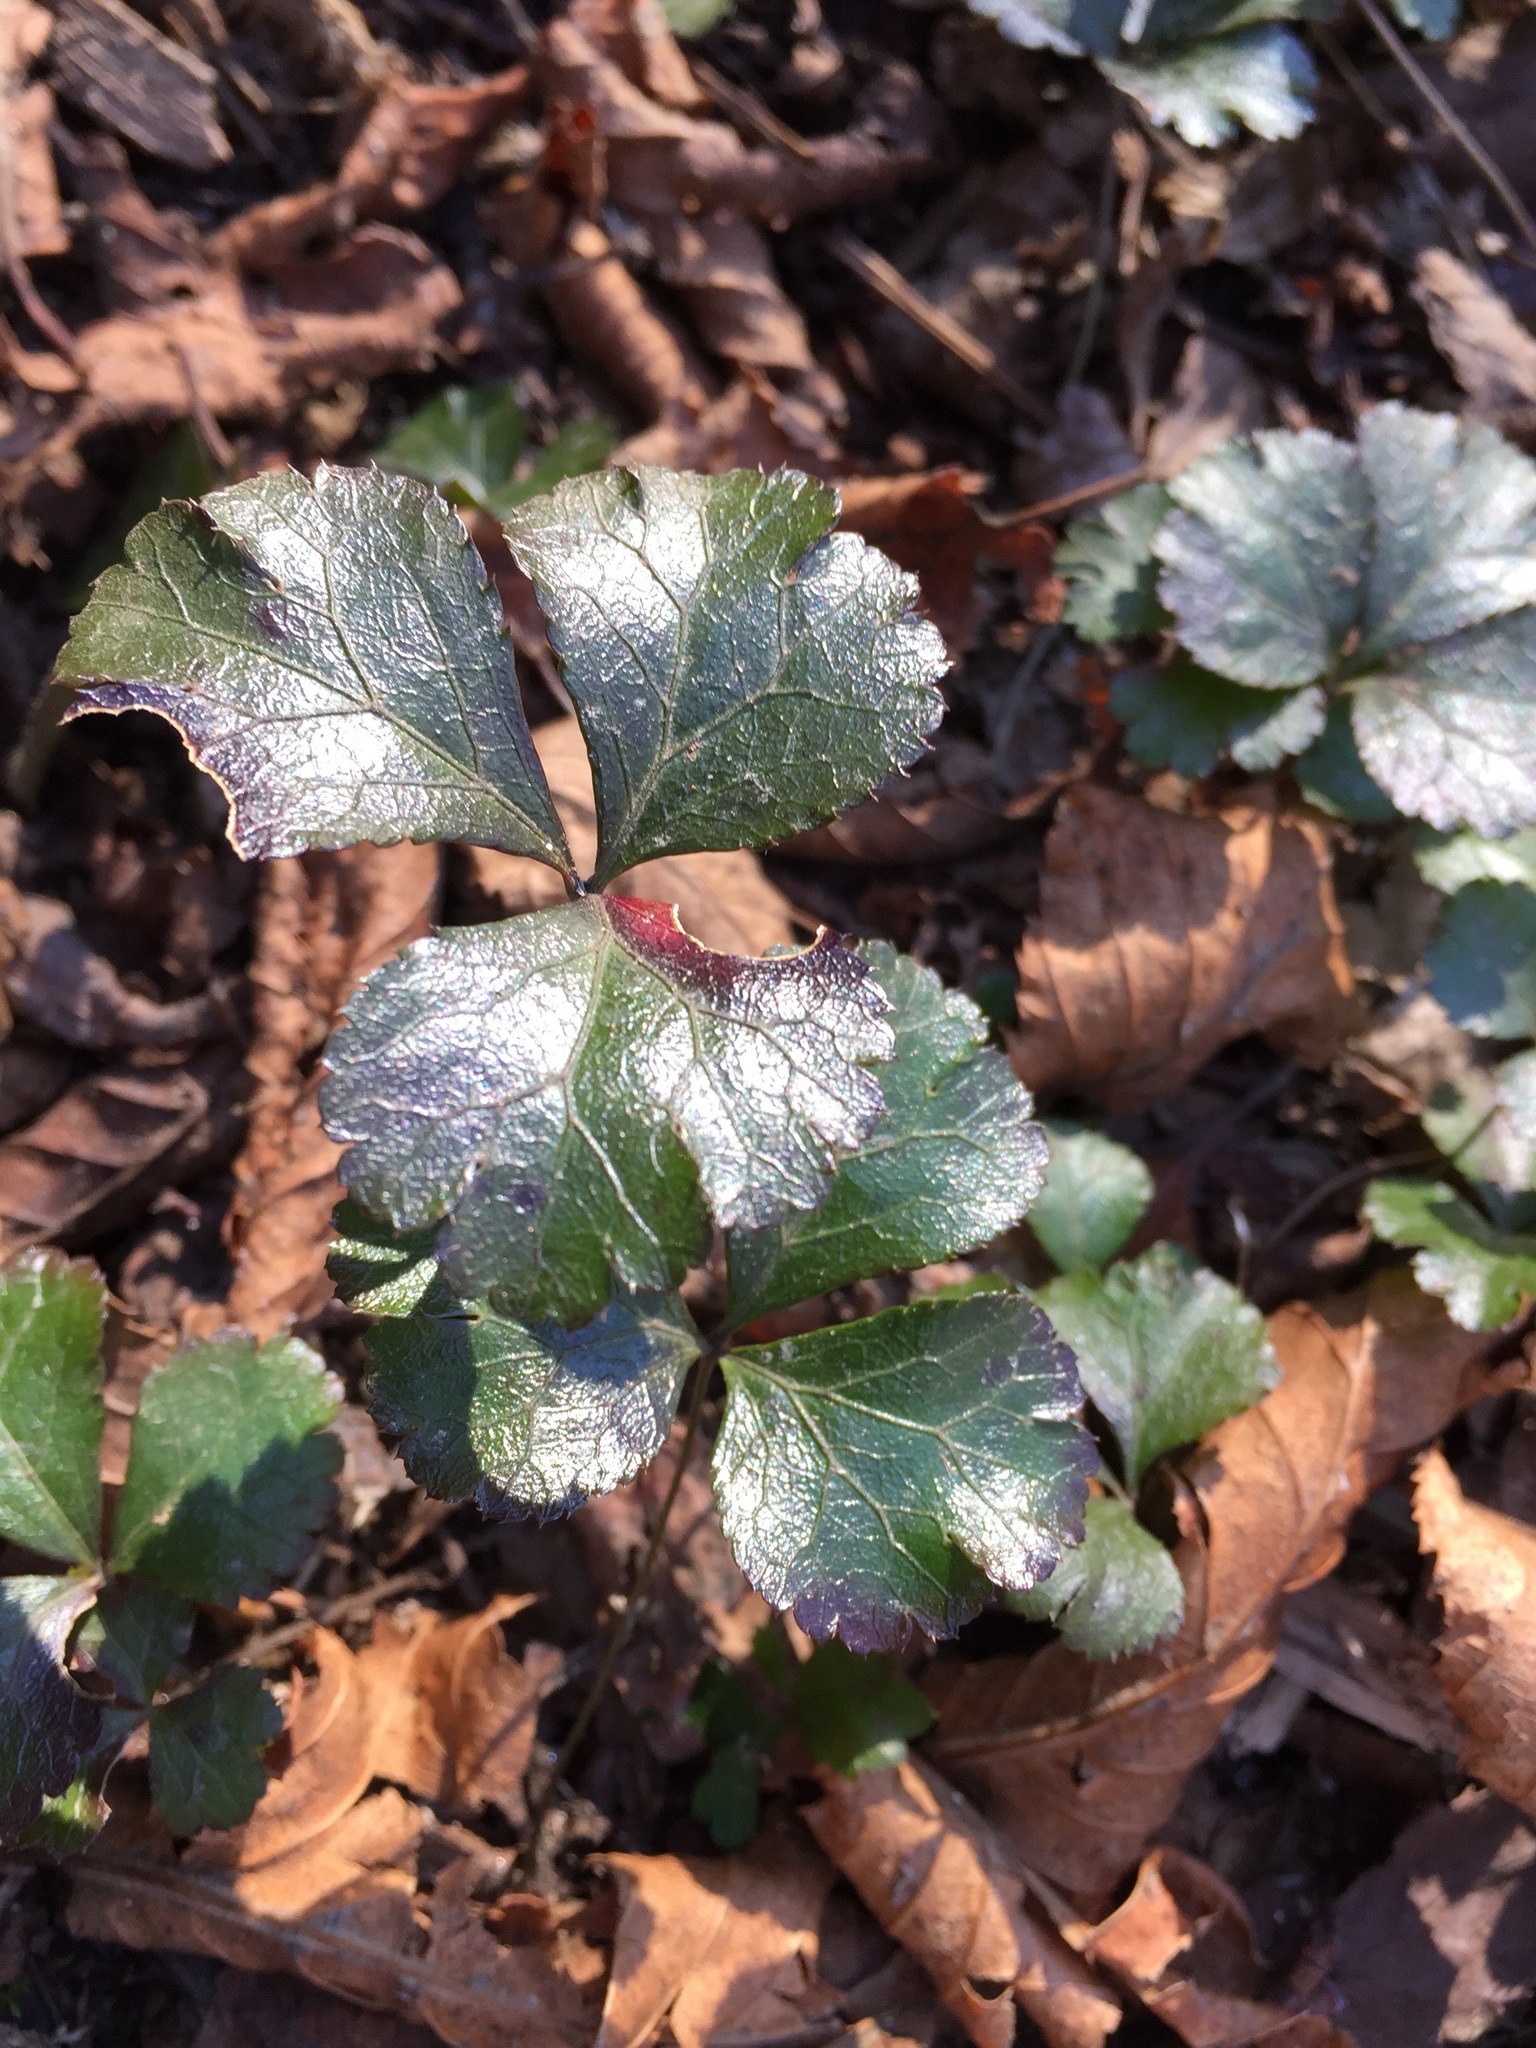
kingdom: Plantae
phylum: Tracheophyta
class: Magnoliopsida
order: Ranunculales
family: Ranunculaceae
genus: Coptis
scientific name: Coptis trifolia
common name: Canker-root
